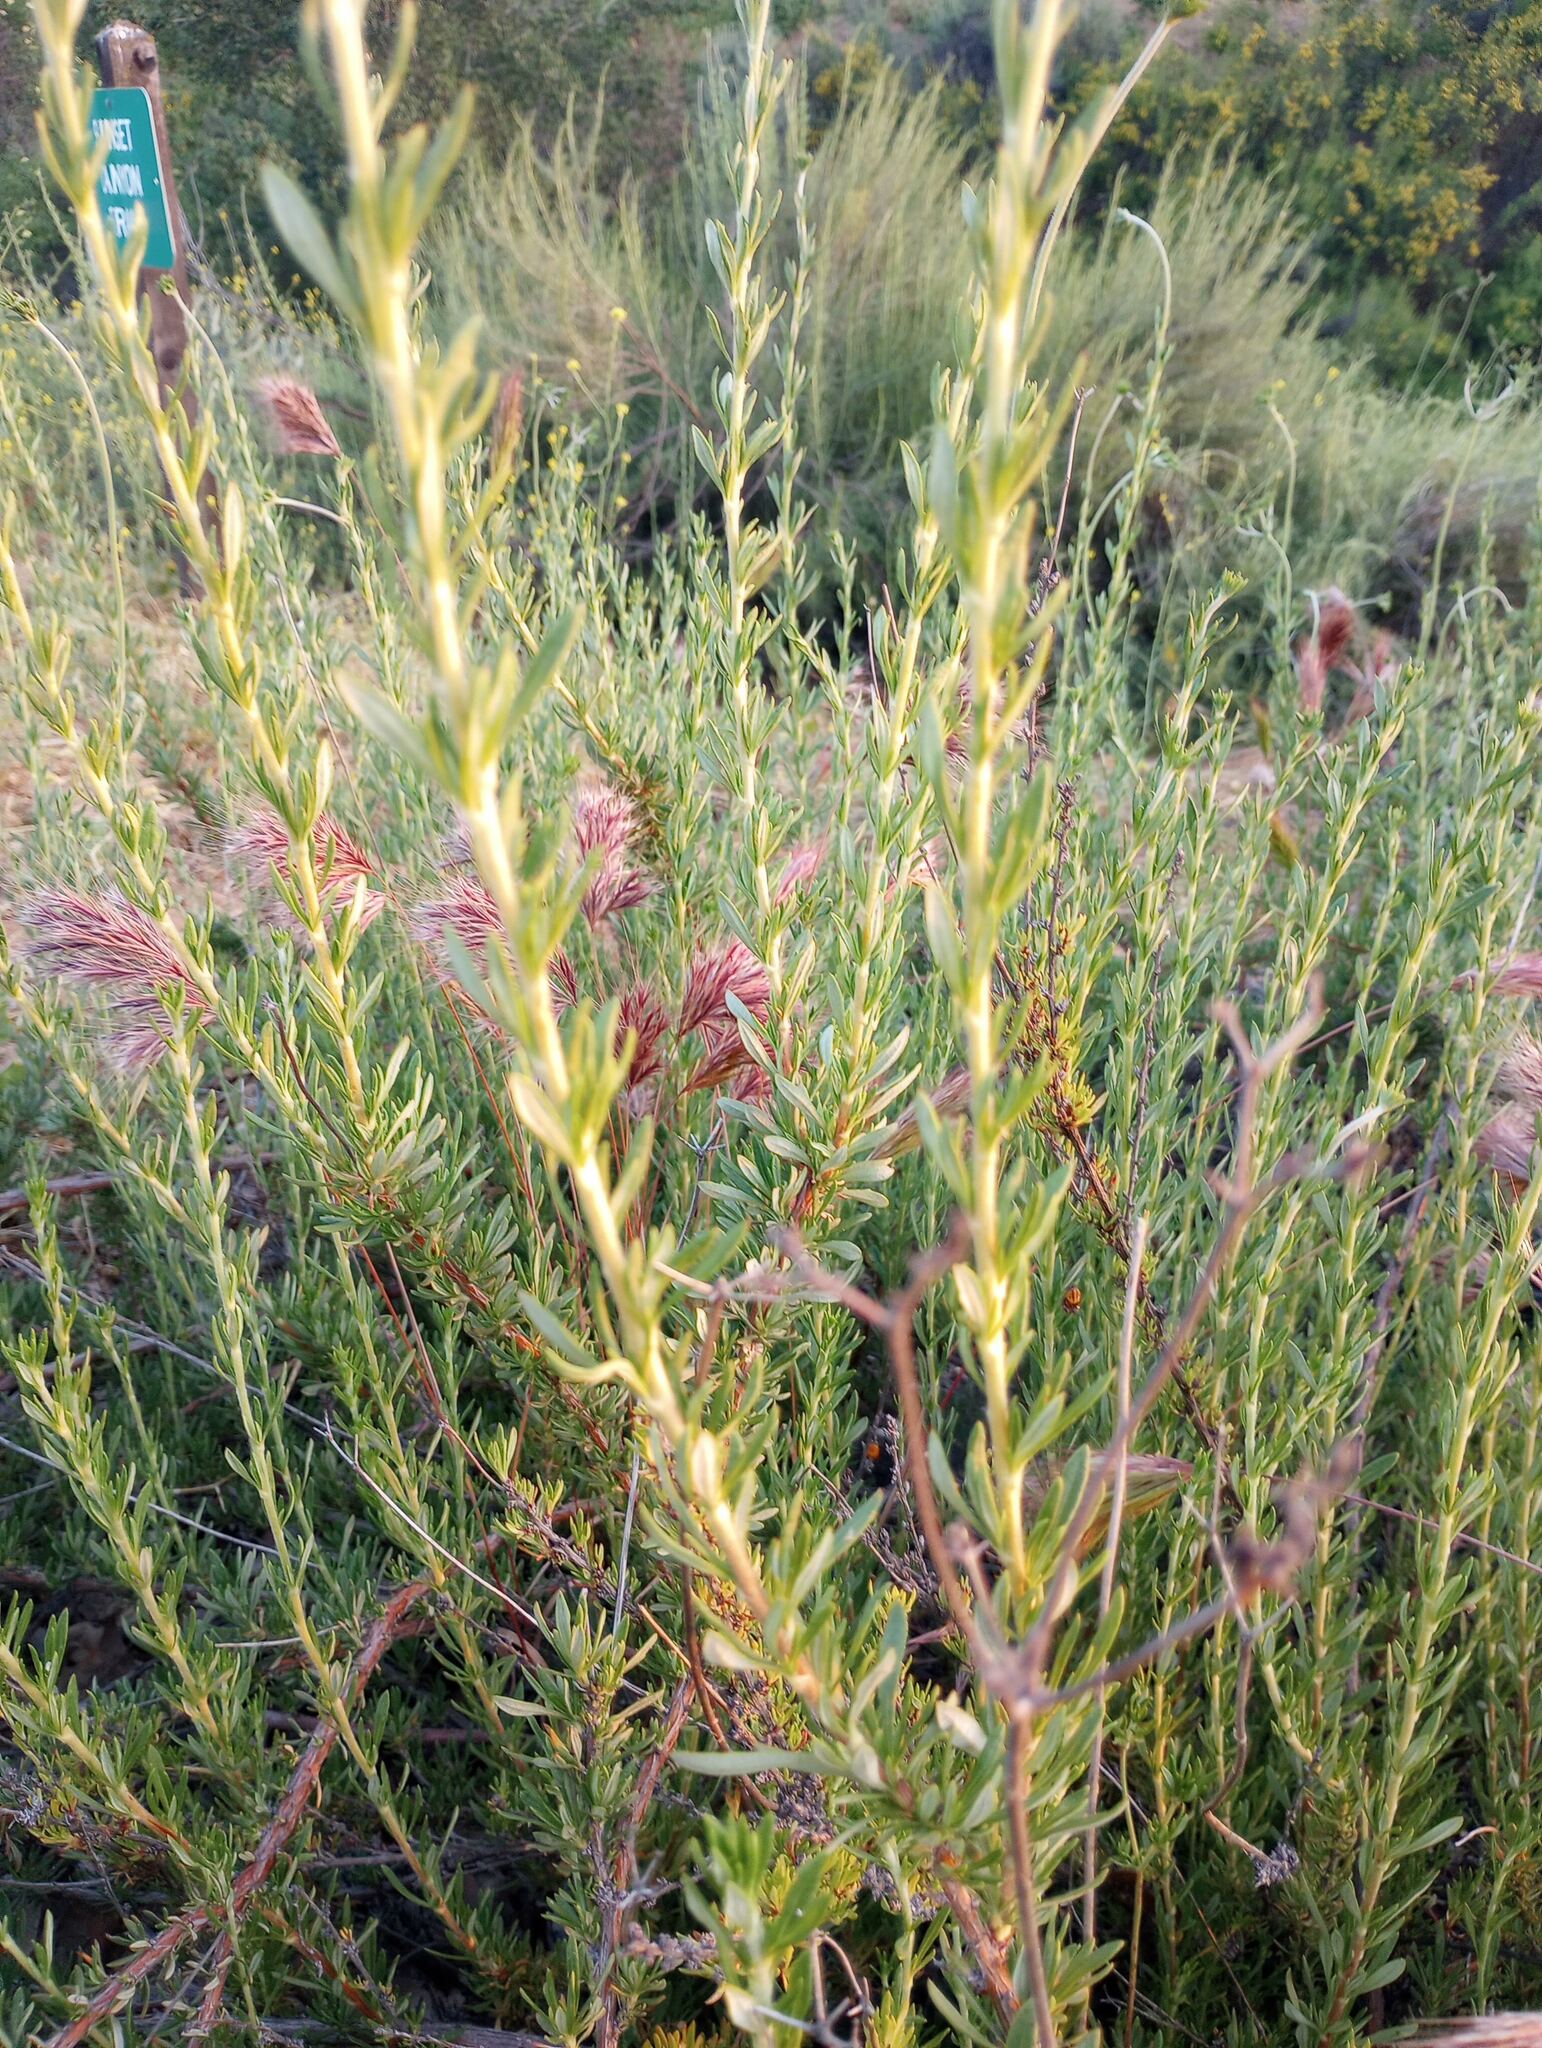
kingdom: Plantae
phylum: Tracheophyta
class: Magnoliopsida
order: Caryophyllales
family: Polygonaceae
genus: Eriogonum
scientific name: Eriogonum fasciculatum
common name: California wild buckwheat
